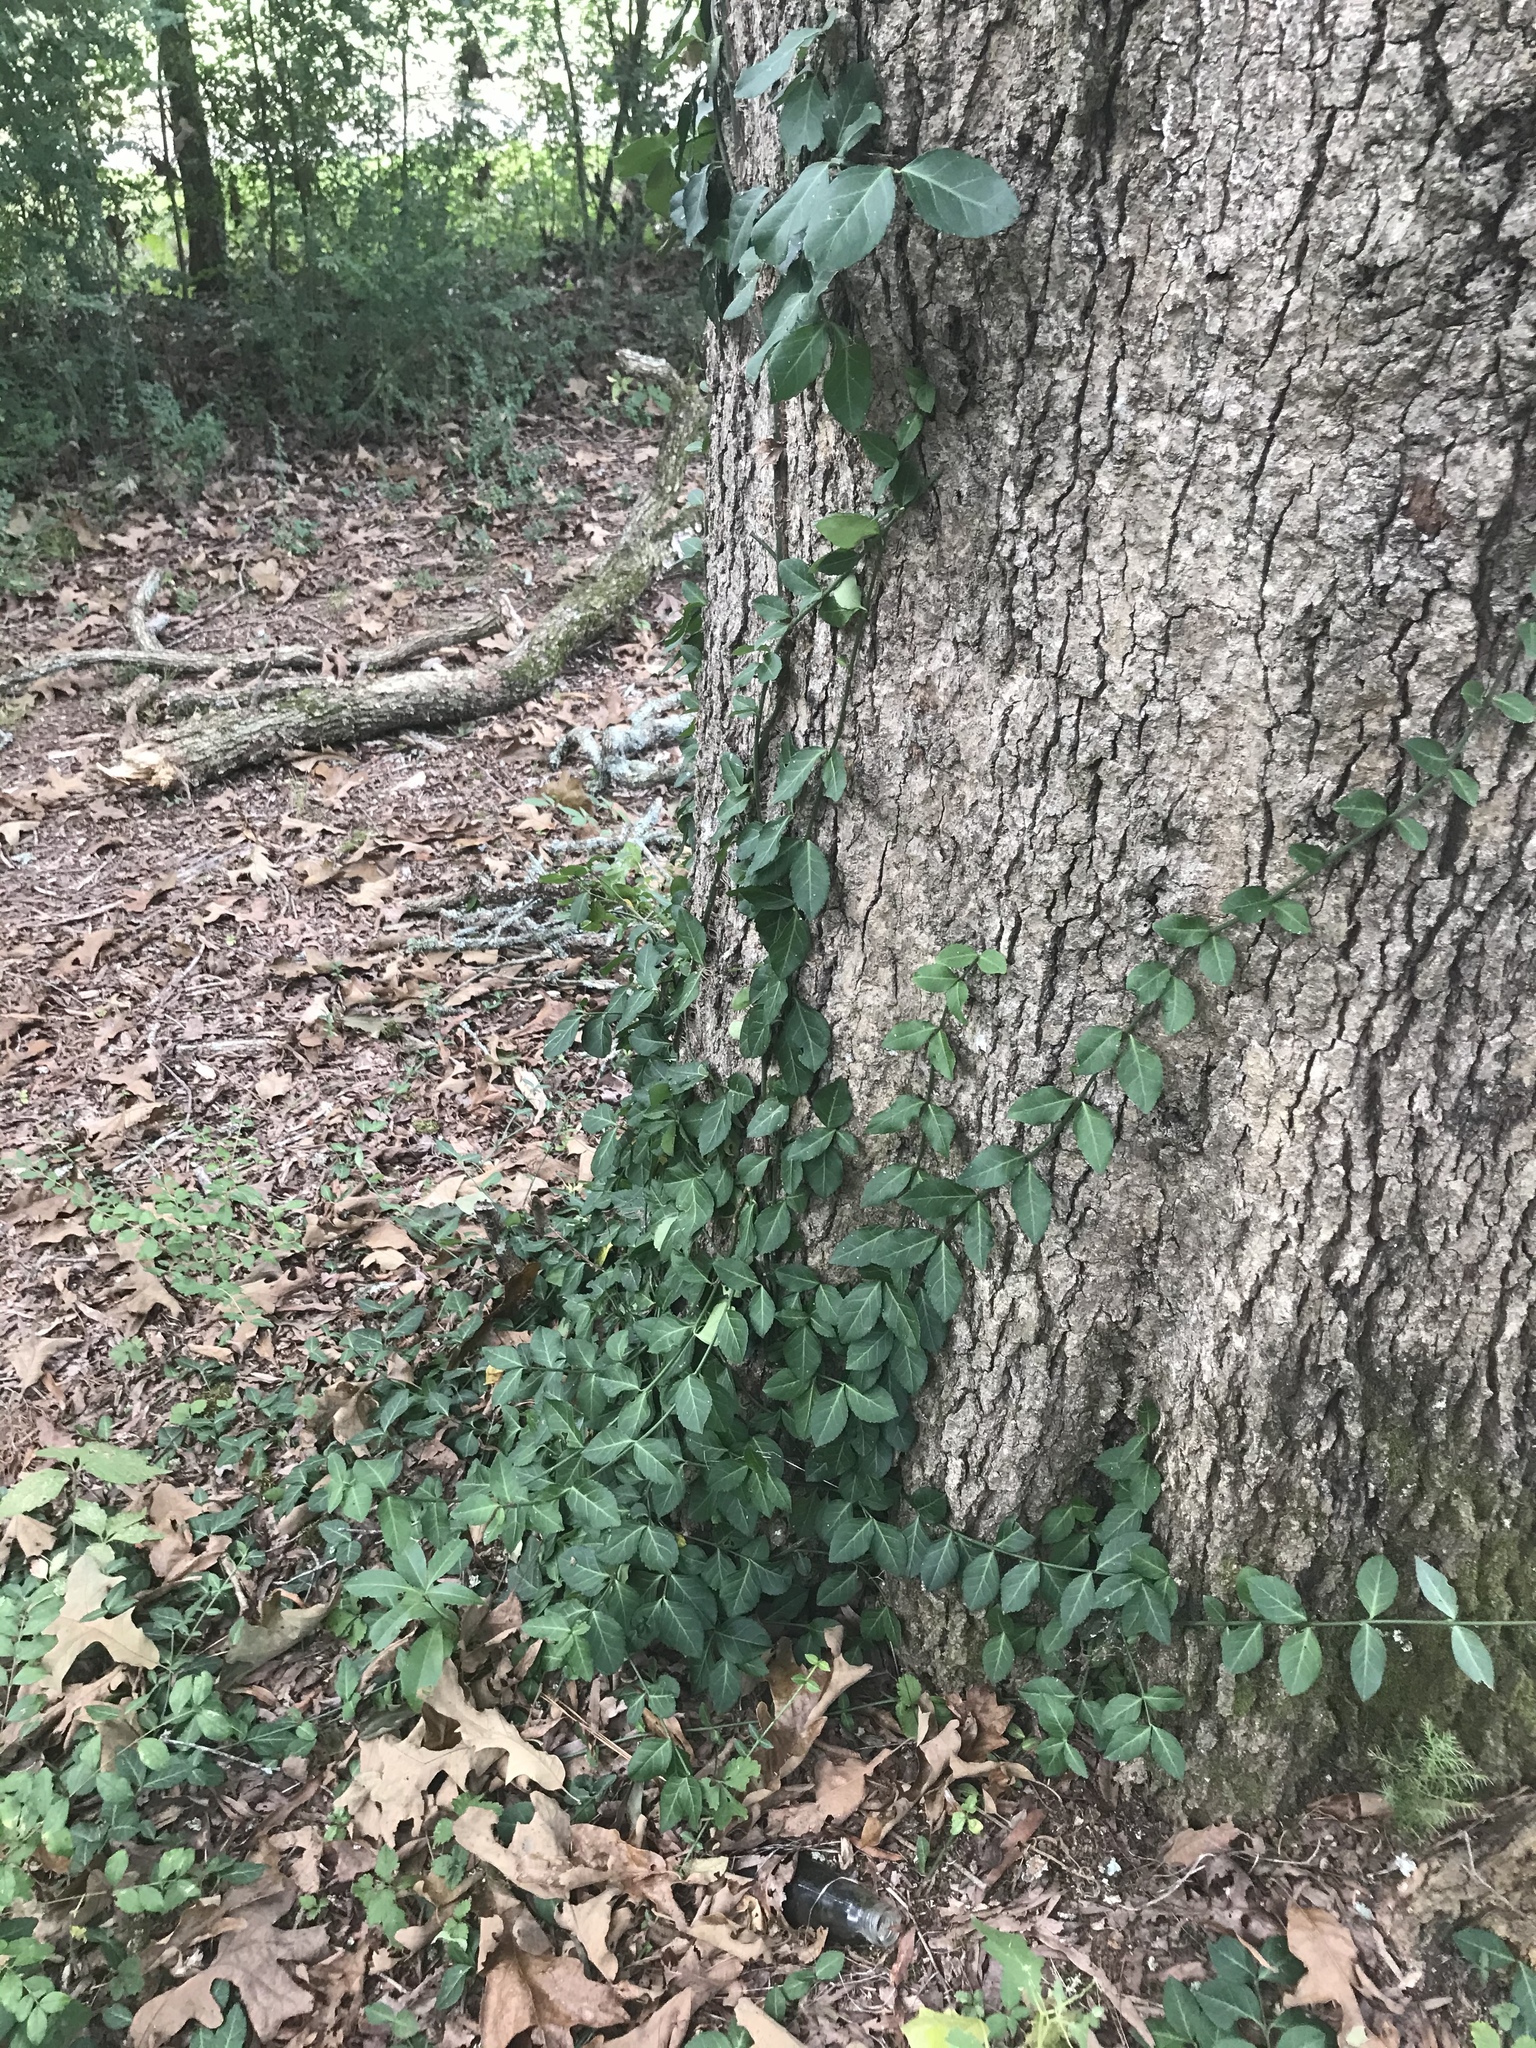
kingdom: Plantae
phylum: Tracheophyta
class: Magnoliopsida
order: Celastrales
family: Celastraceae
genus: Euonymus
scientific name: Euonymus fortunei
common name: Climbing euonymus
